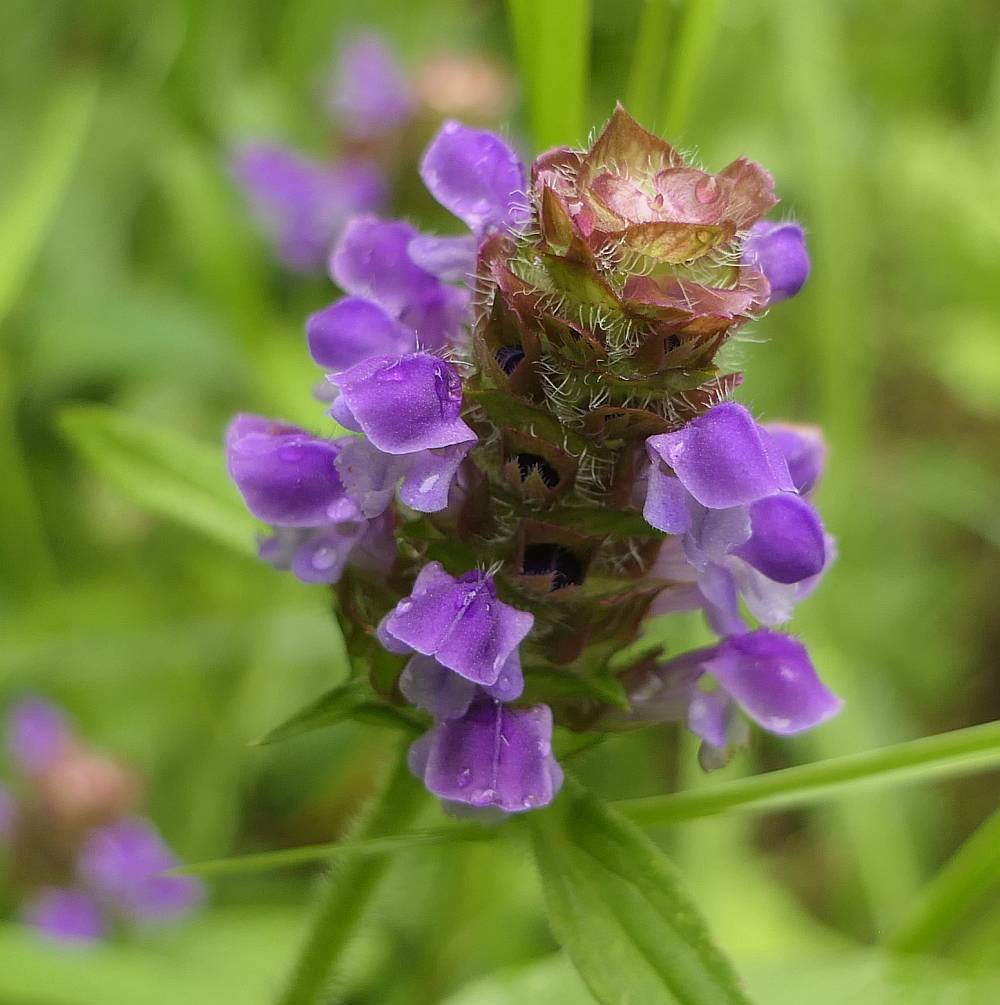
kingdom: Plantae
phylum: Tracheophyta
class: Magnoliopsida
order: Lamiales
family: Lamiaceae
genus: Prunella
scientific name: Prunella vulgaris
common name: Heal-all
